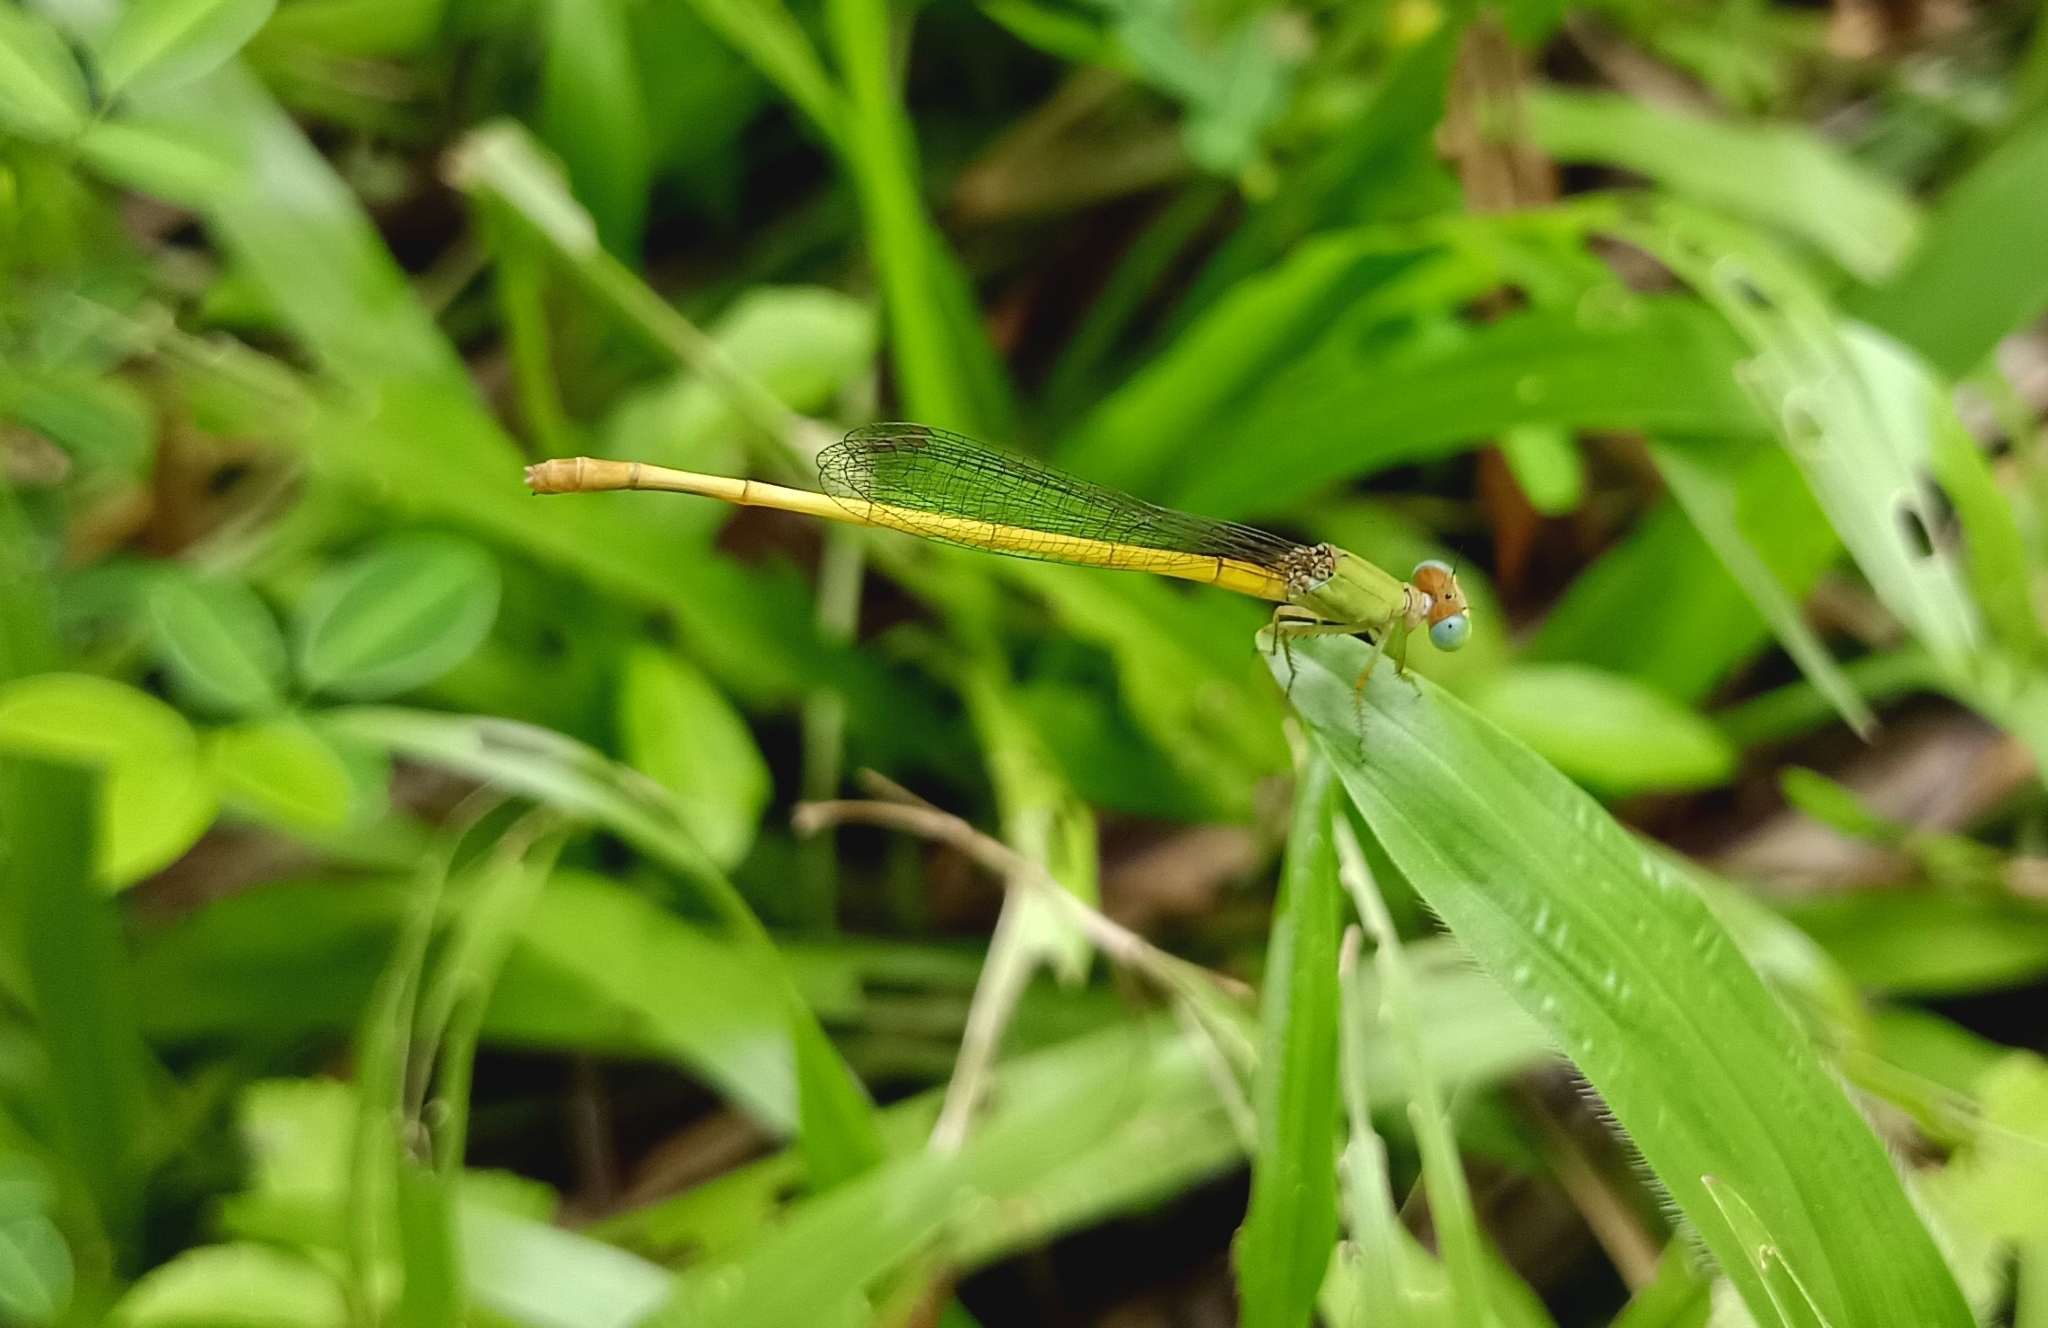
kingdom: Animalia
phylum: Arthropoda
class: Insecta
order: Odonata
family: Coenagrionidae
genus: Ceriagrion
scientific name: Ceriagrion coromandelianum
